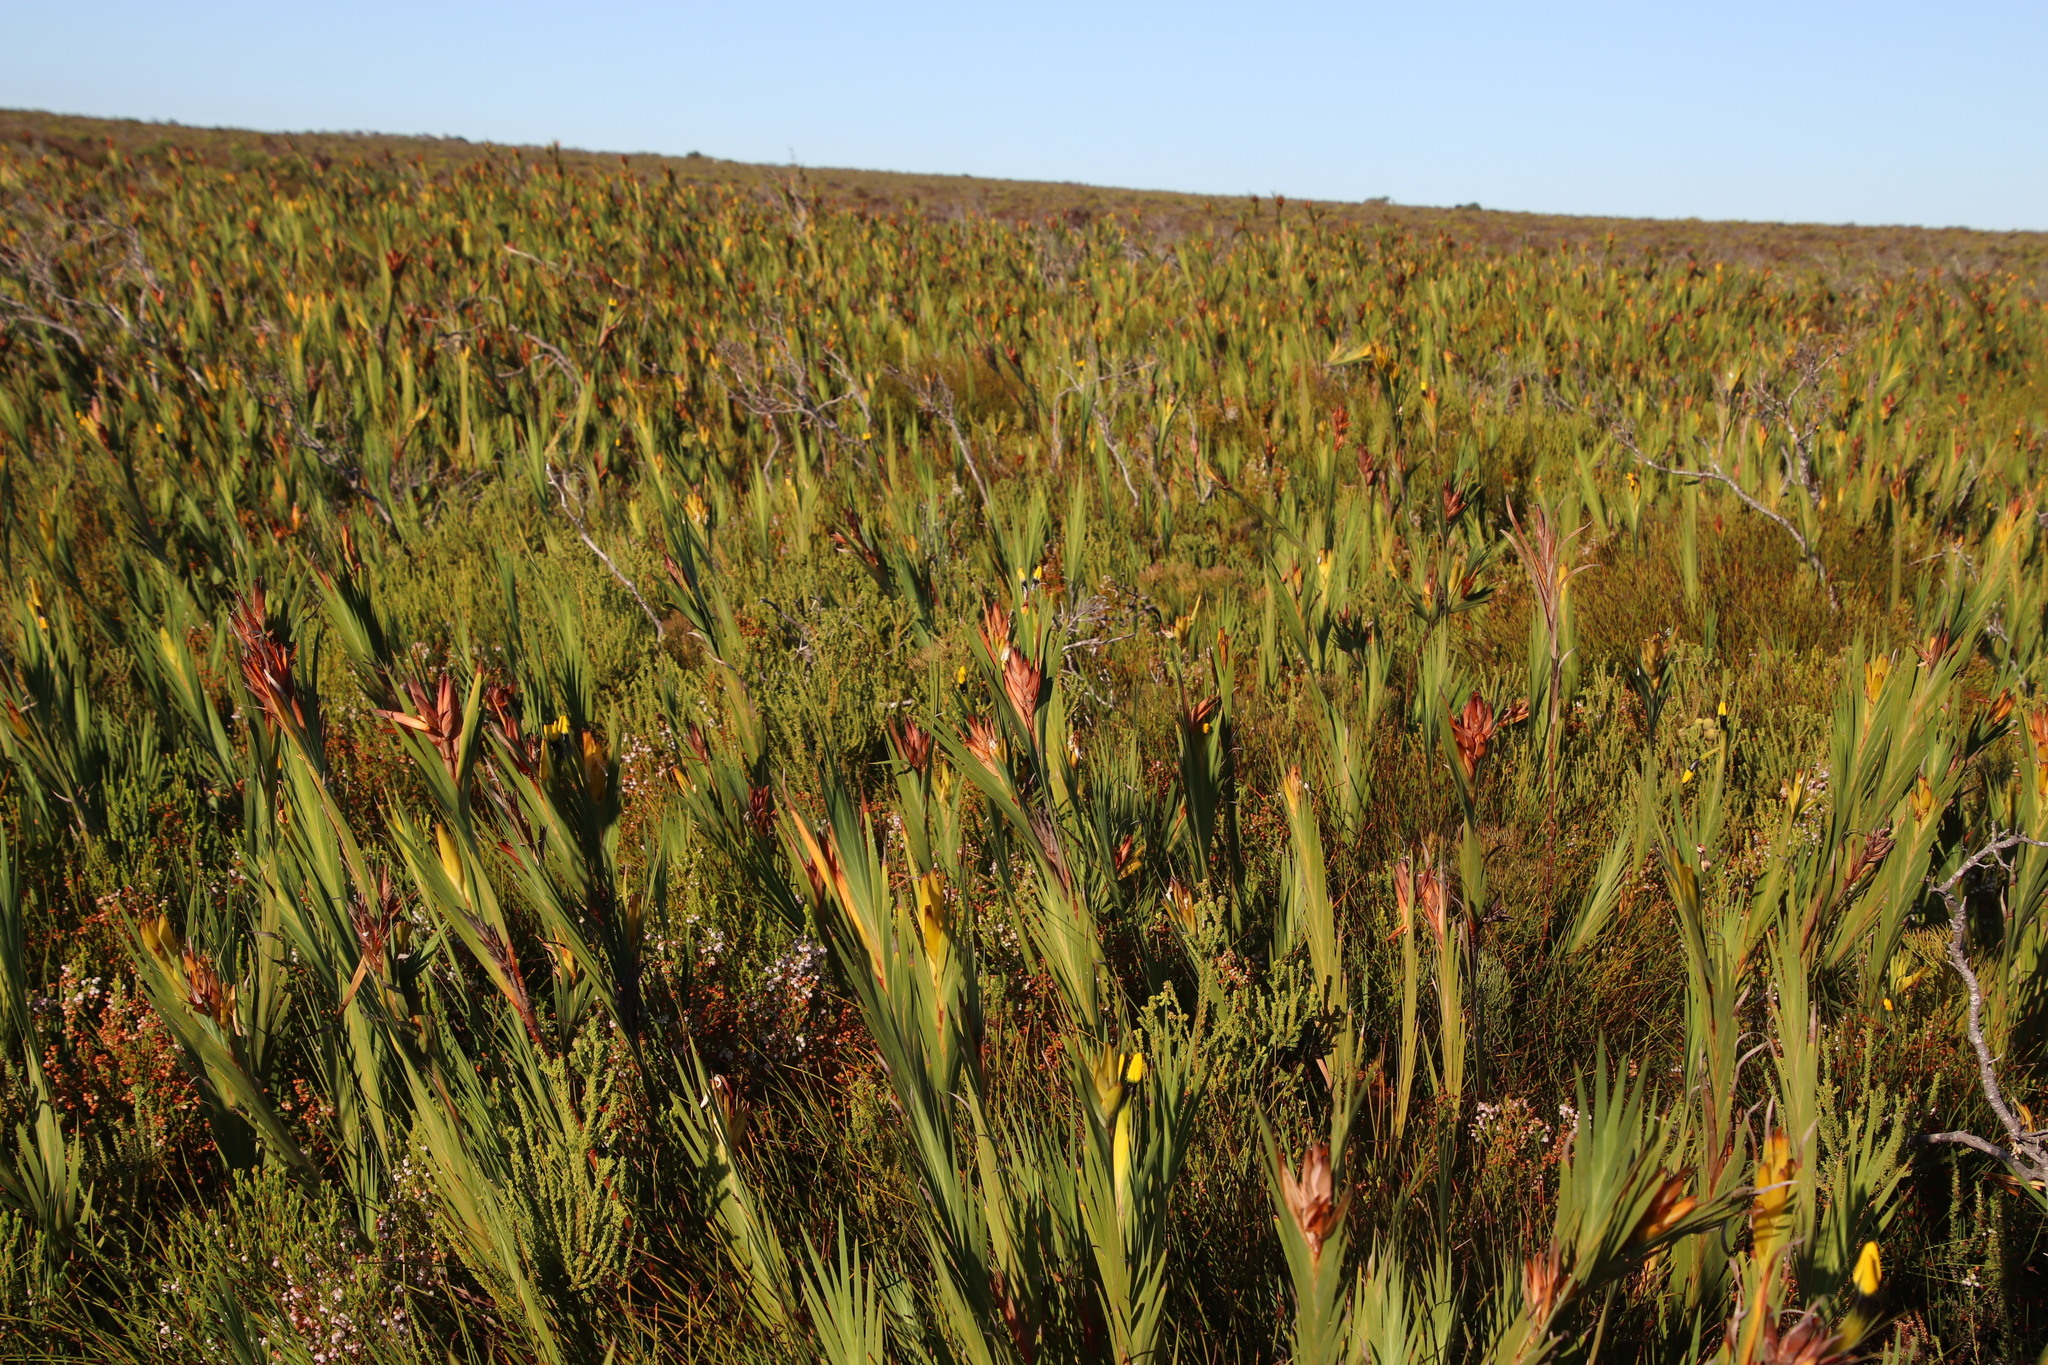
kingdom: Plantae
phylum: Tracheophyta
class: Liliopsida
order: Asparagales
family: Iridaceae
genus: Witsenia
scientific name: Witsenia maura
